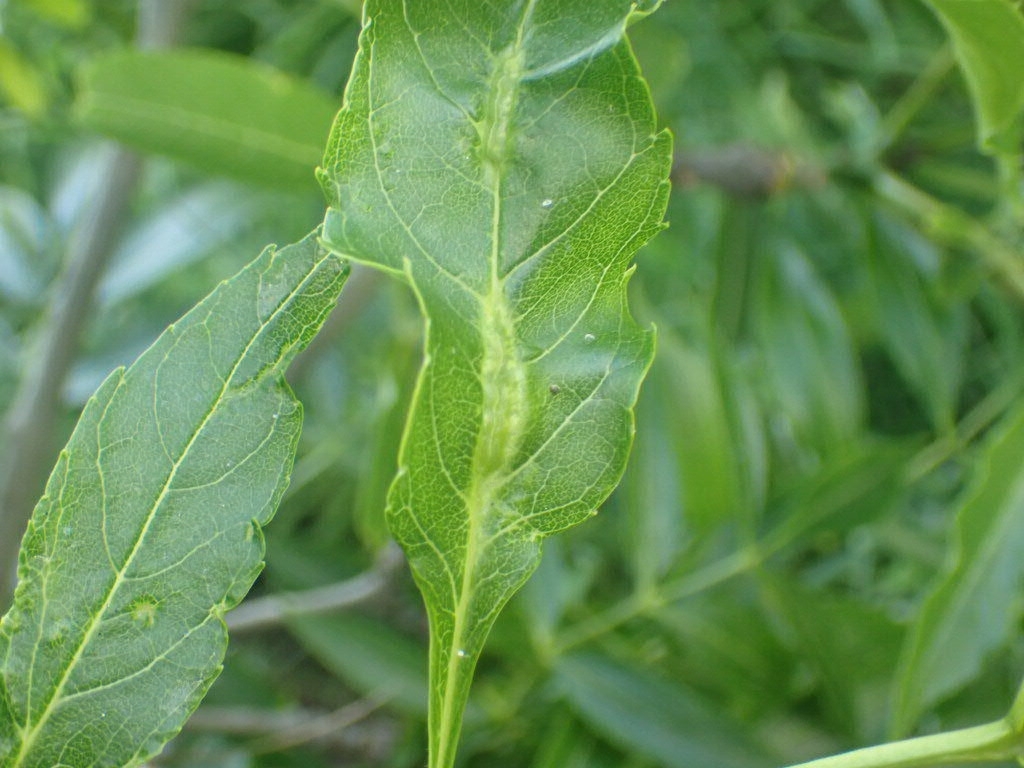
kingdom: Animalia
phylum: Arthropoda
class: Insecta
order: Diptera
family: Cecidomyiidae
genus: Dasineura
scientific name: Dasineura fraxini
